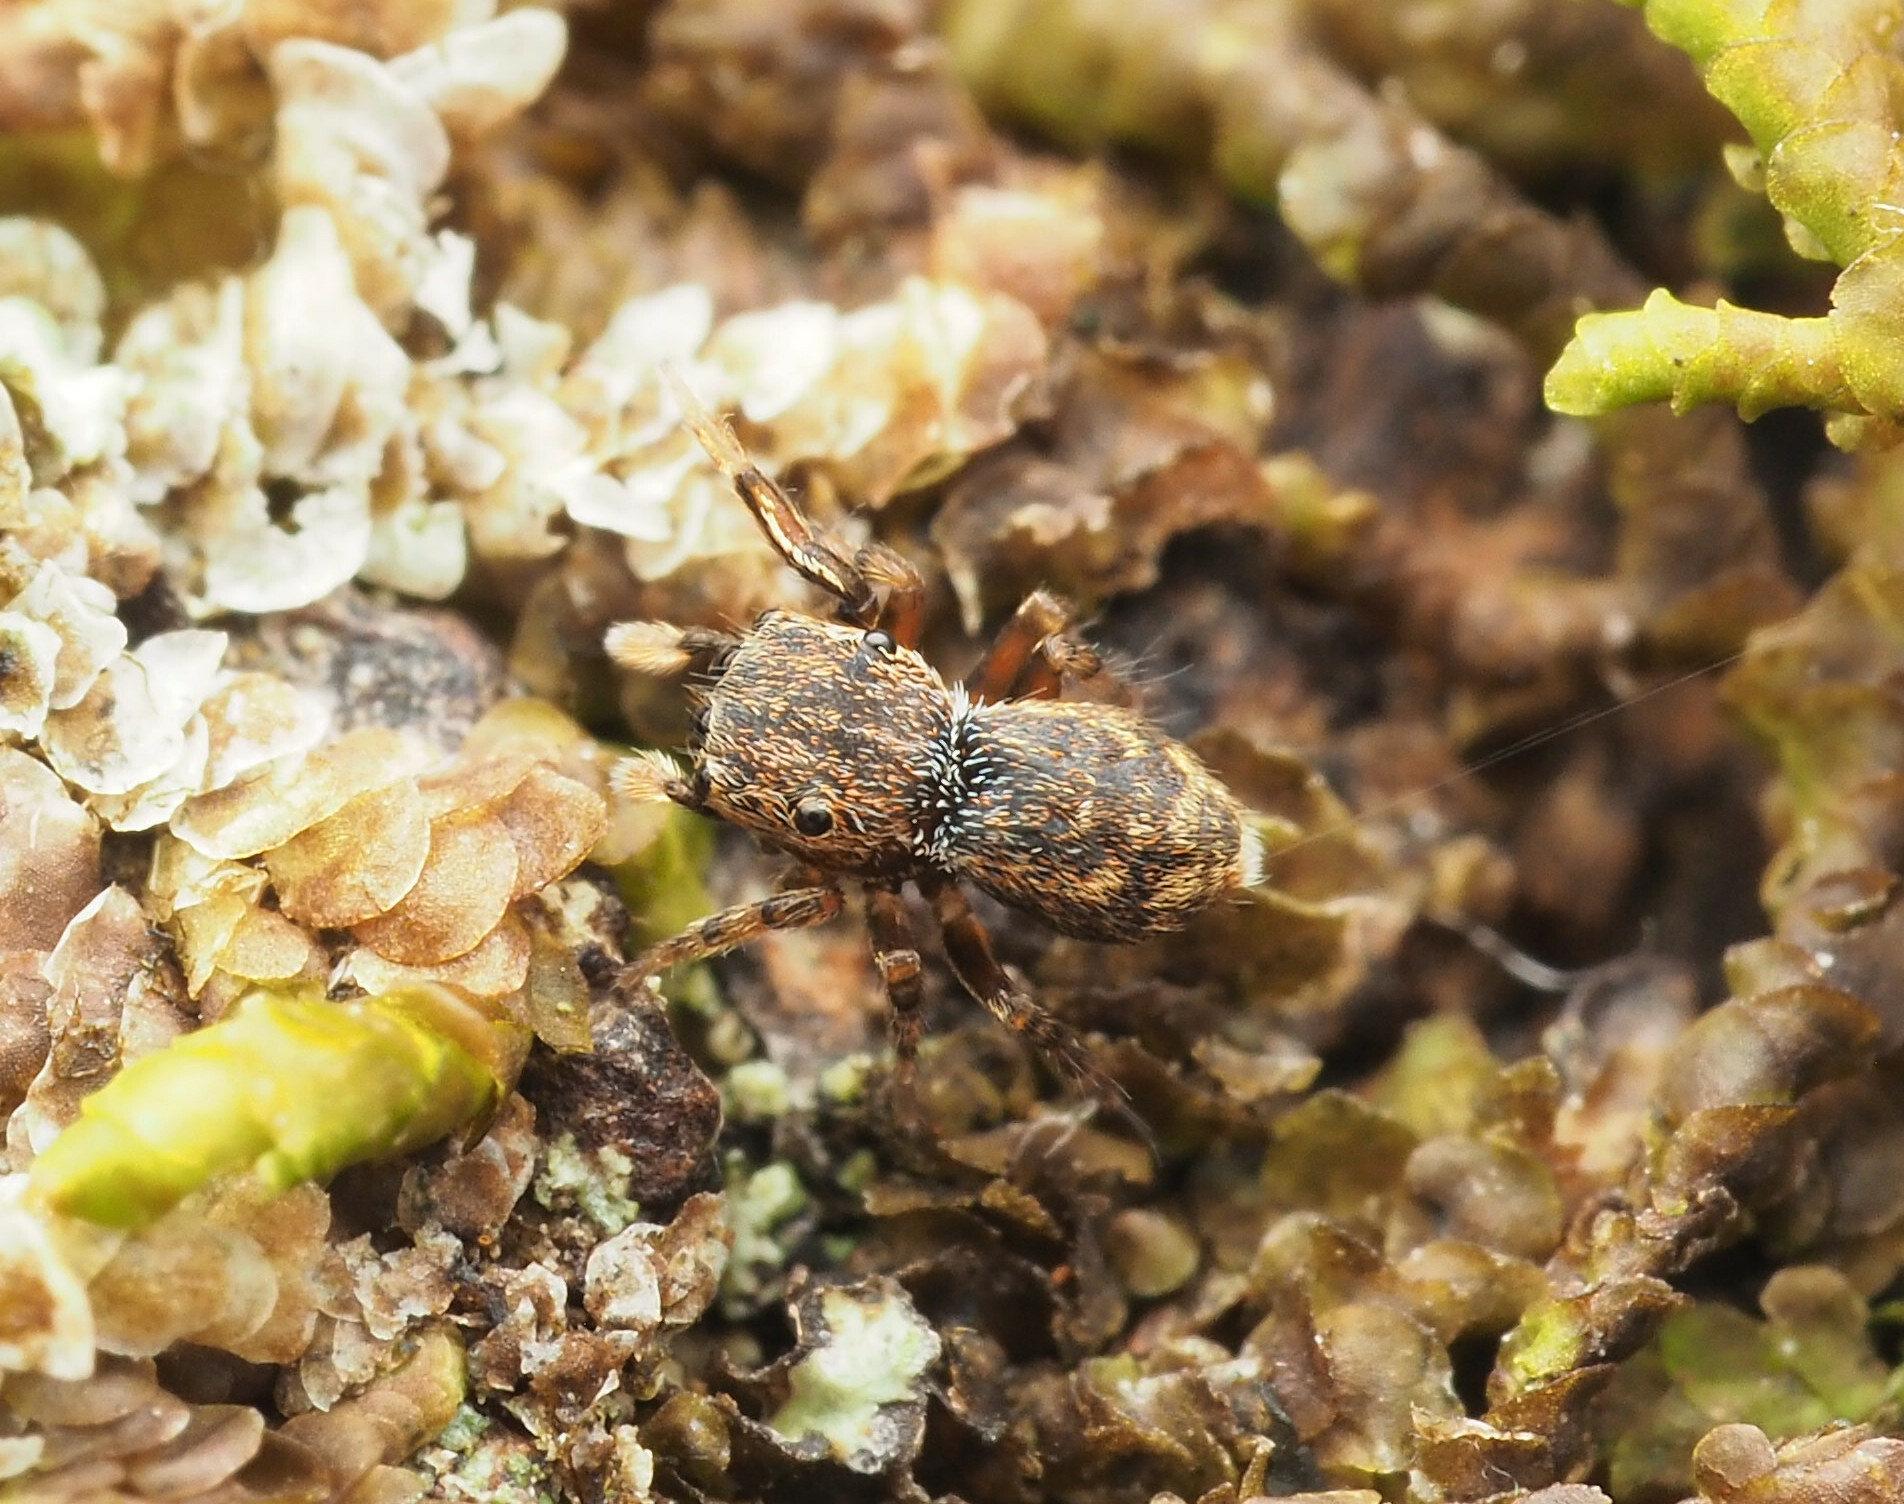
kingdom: Animalia
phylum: Arthropoda
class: Arachnida
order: Araneae
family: Salticidae
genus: Bianor
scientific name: Bianor
